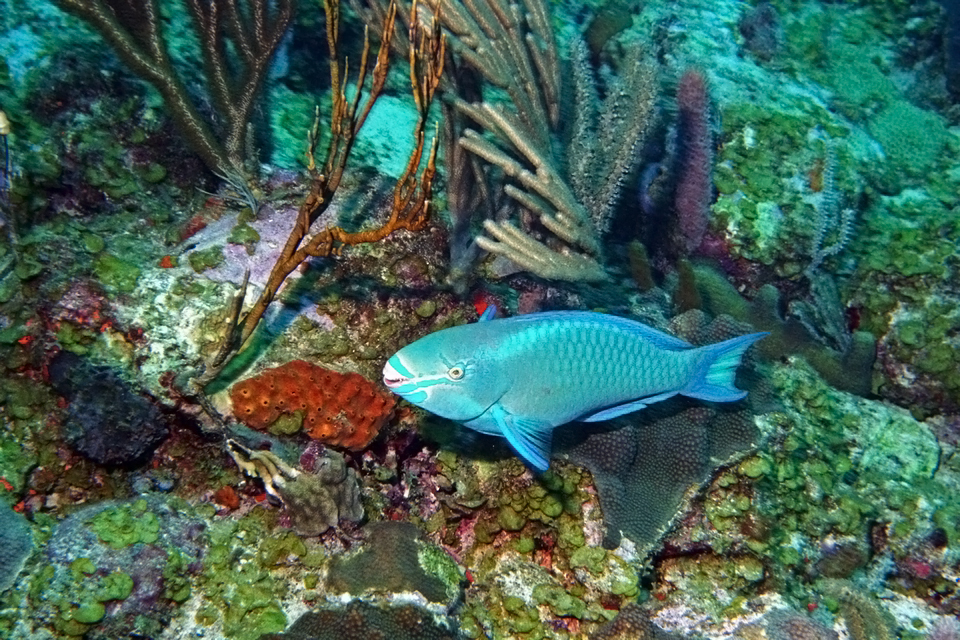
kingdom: Animalia
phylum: Chordata
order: Perciformes
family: Scaridae
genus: Scarus
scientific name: Scarus vetula
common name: Queen parrotfish
